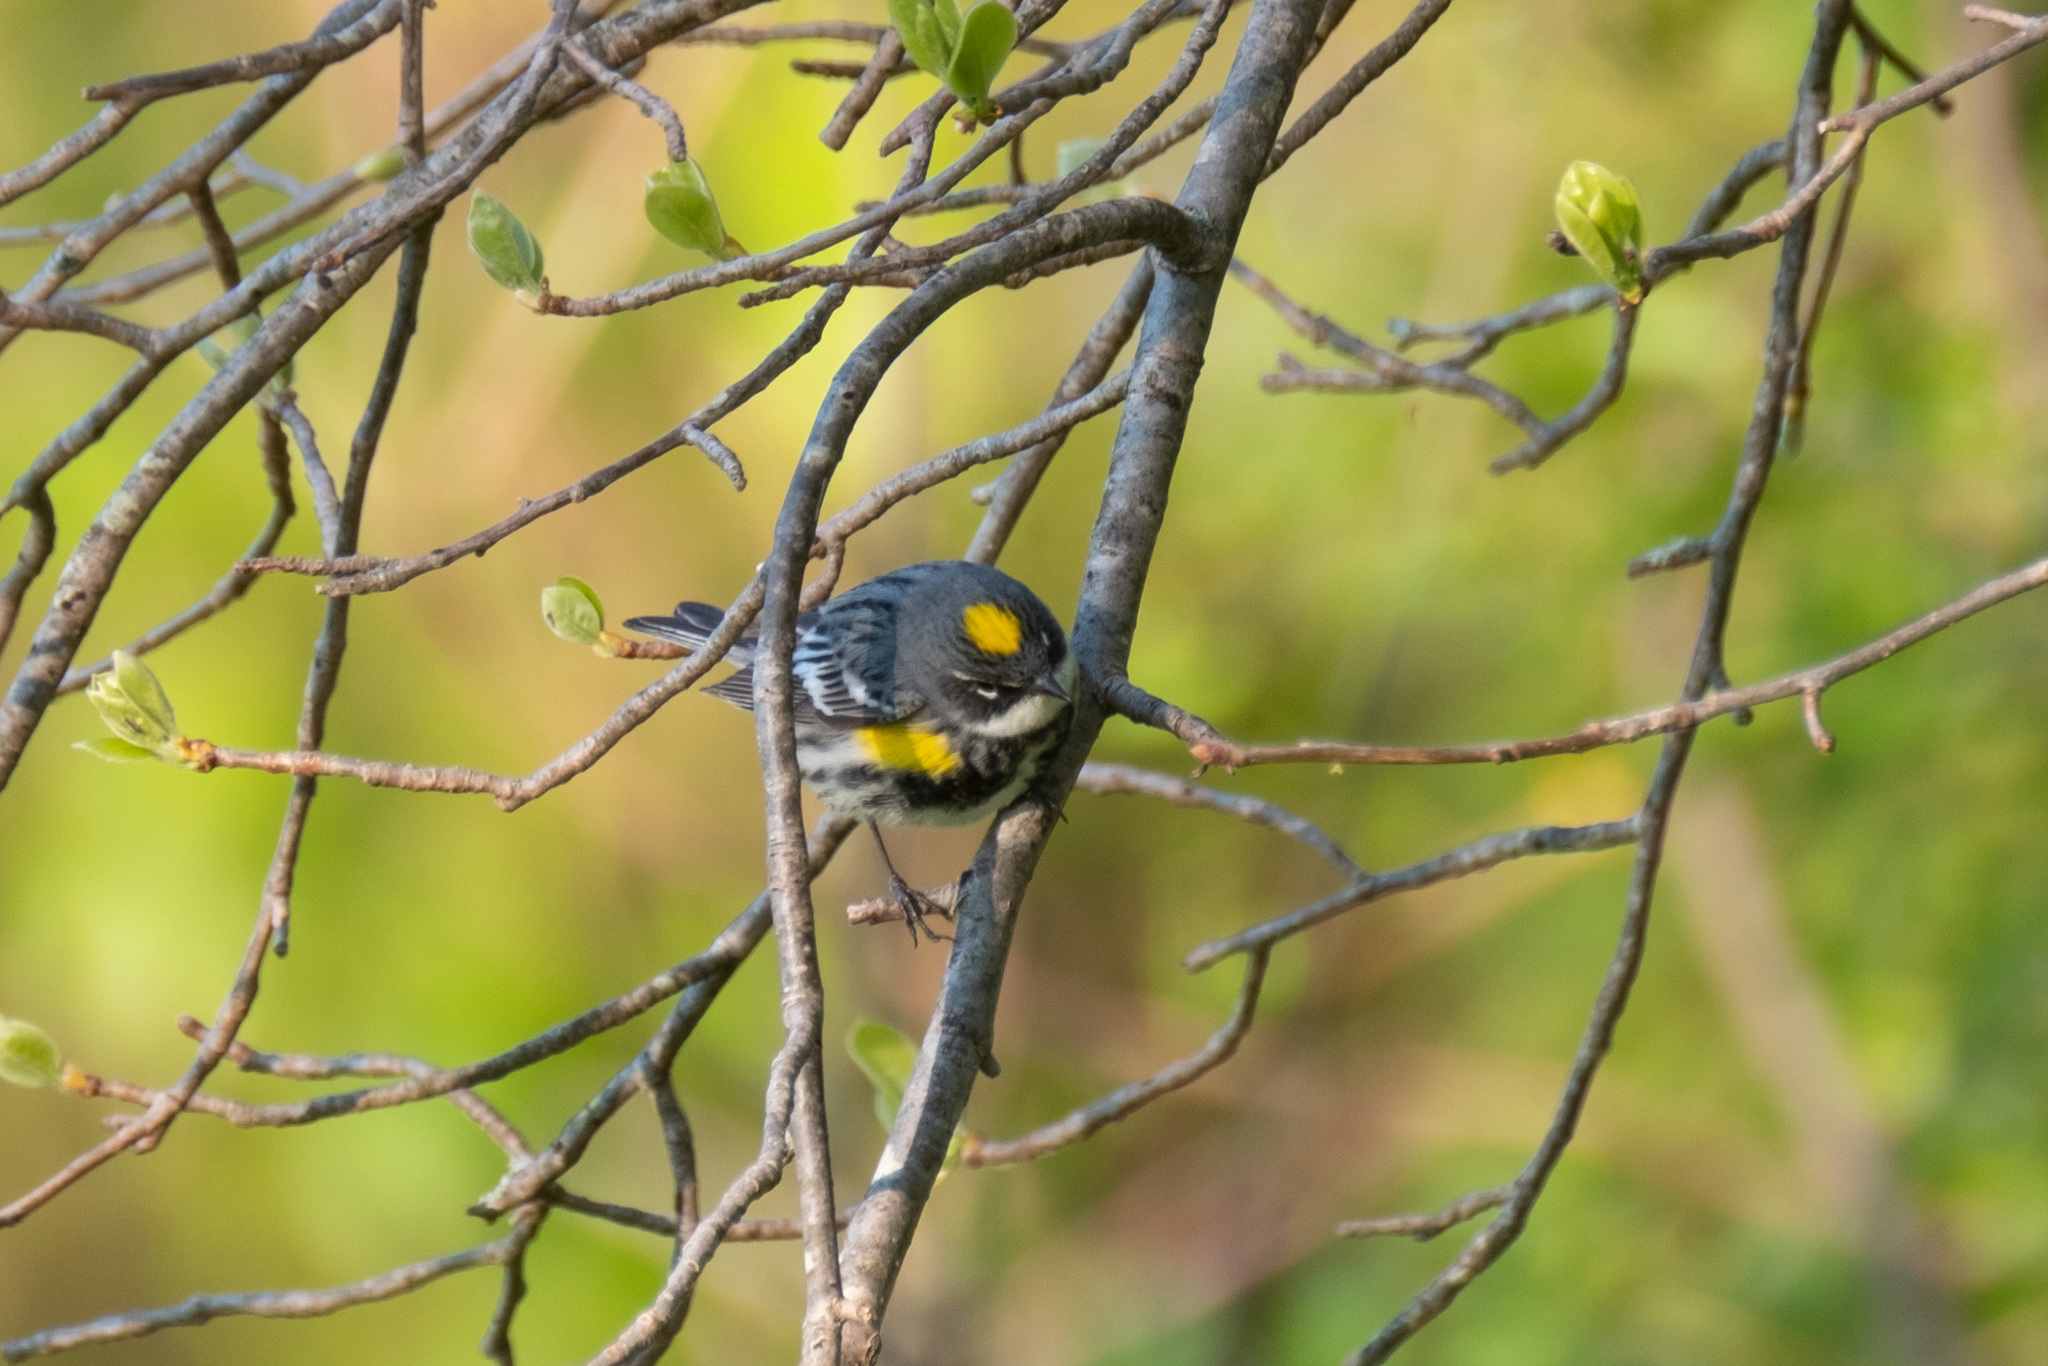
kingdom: Animalia
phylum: Chordata
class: Aves
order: Passeriformes
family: Parulidae
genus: Setophaga
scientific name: Setophaga coronata
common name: Myrtle warbler
